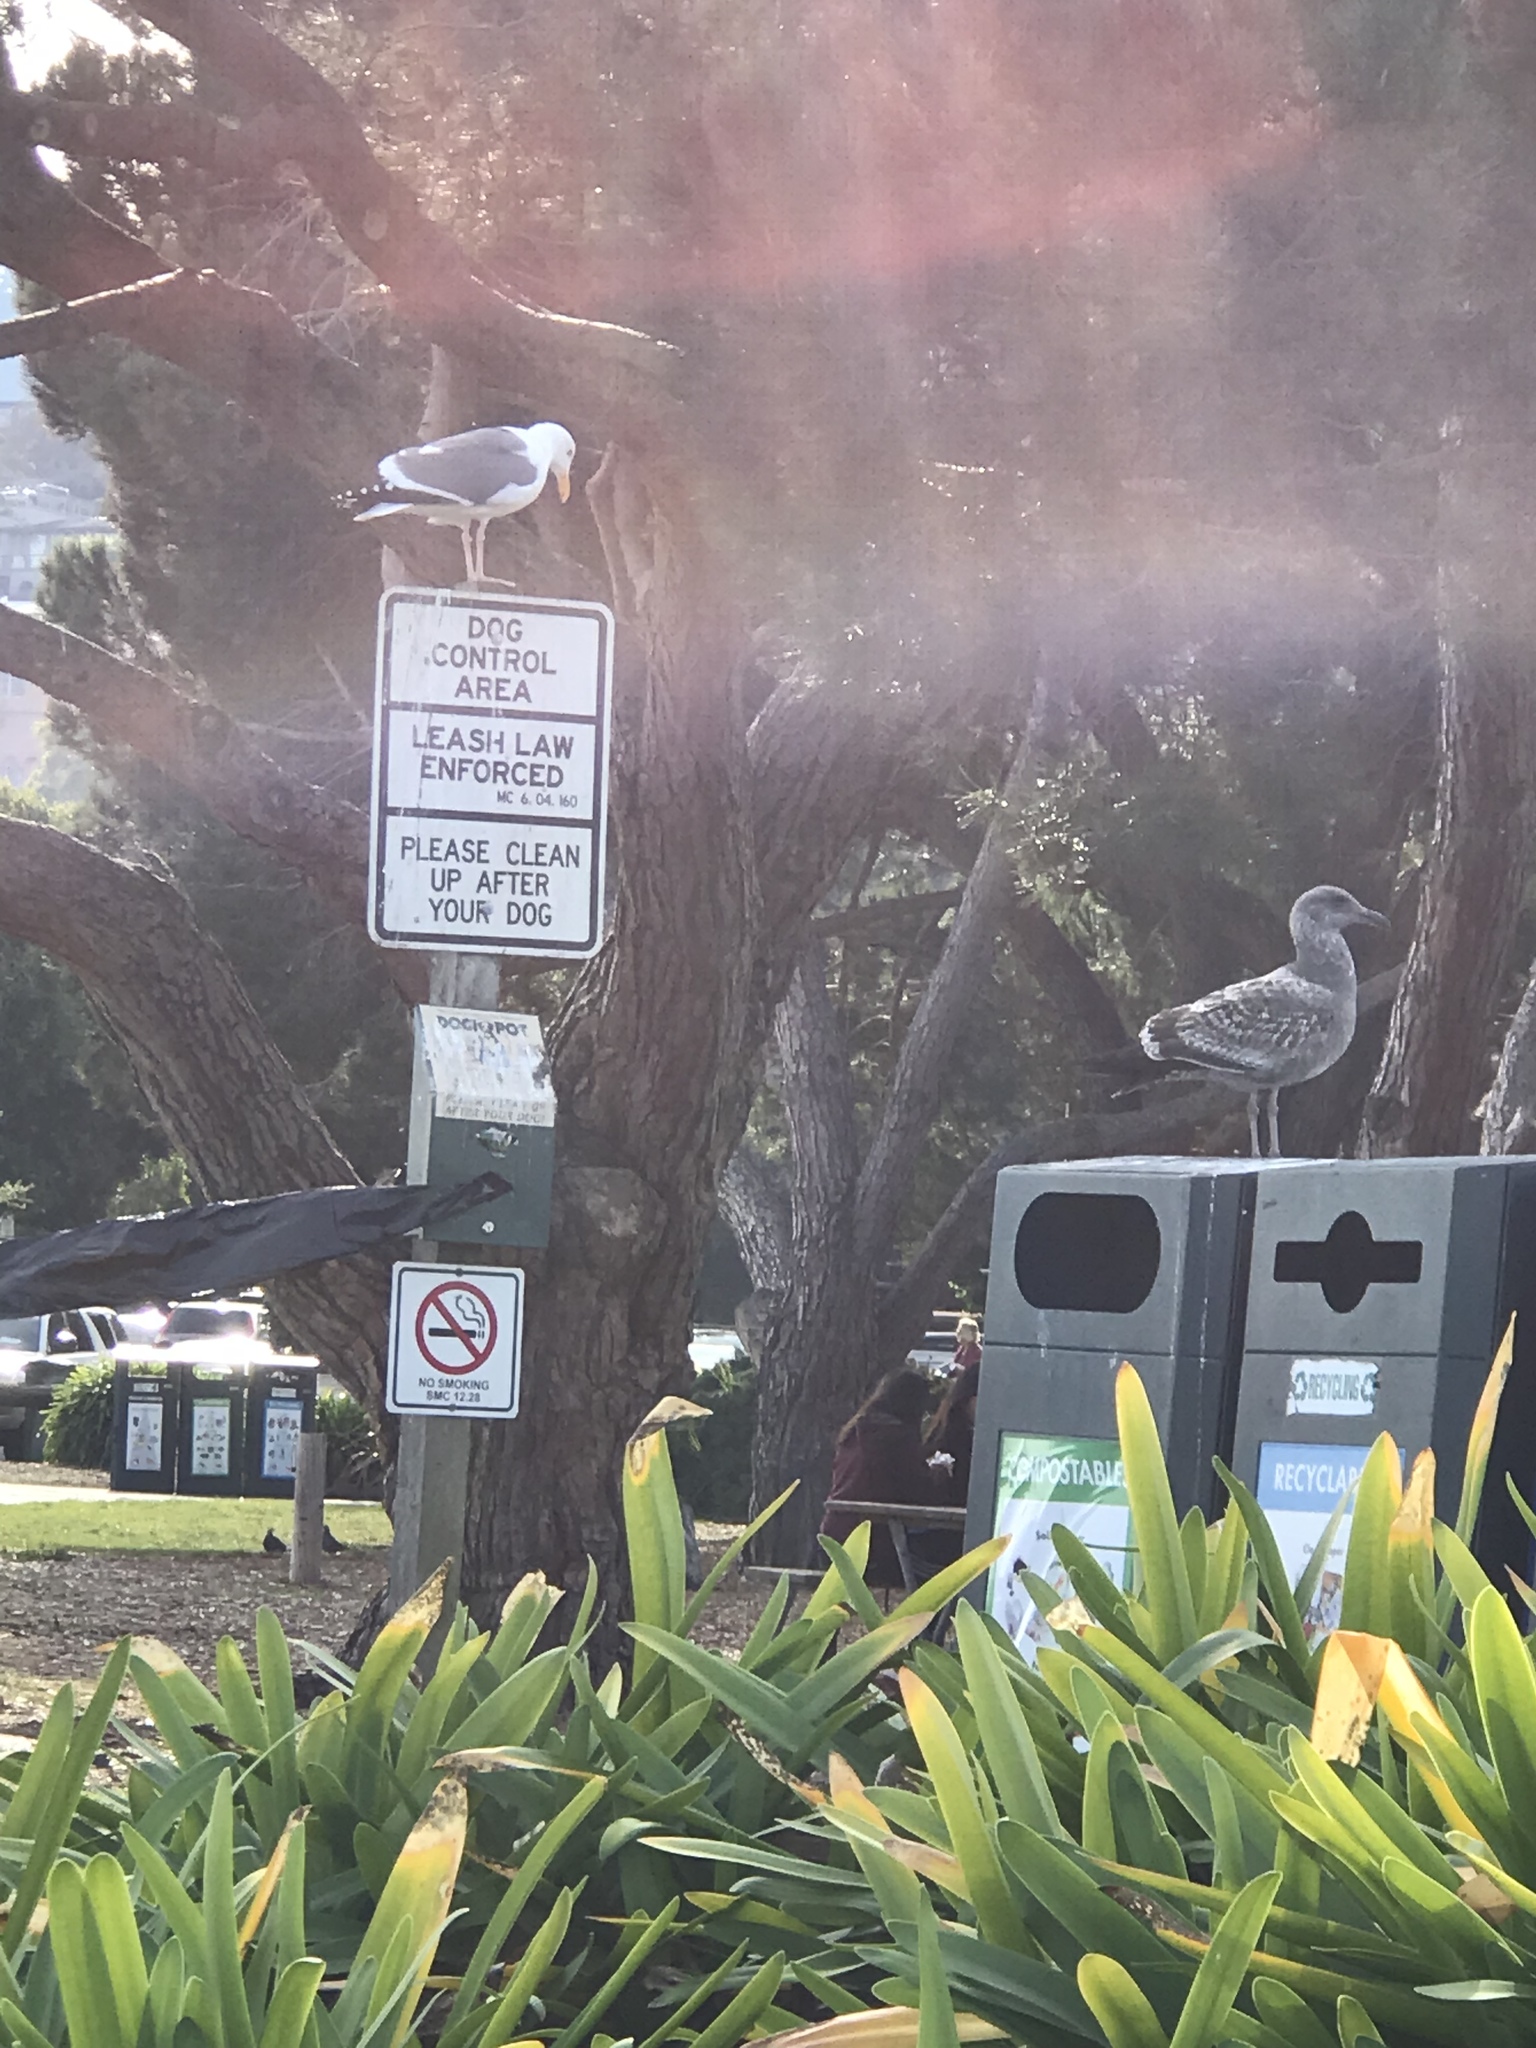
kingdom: Animalia
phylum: Chordata
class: Aves
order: Charadriiformes
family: Laridae
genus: Larus
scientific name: Larus occidentalis
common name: Western gull
